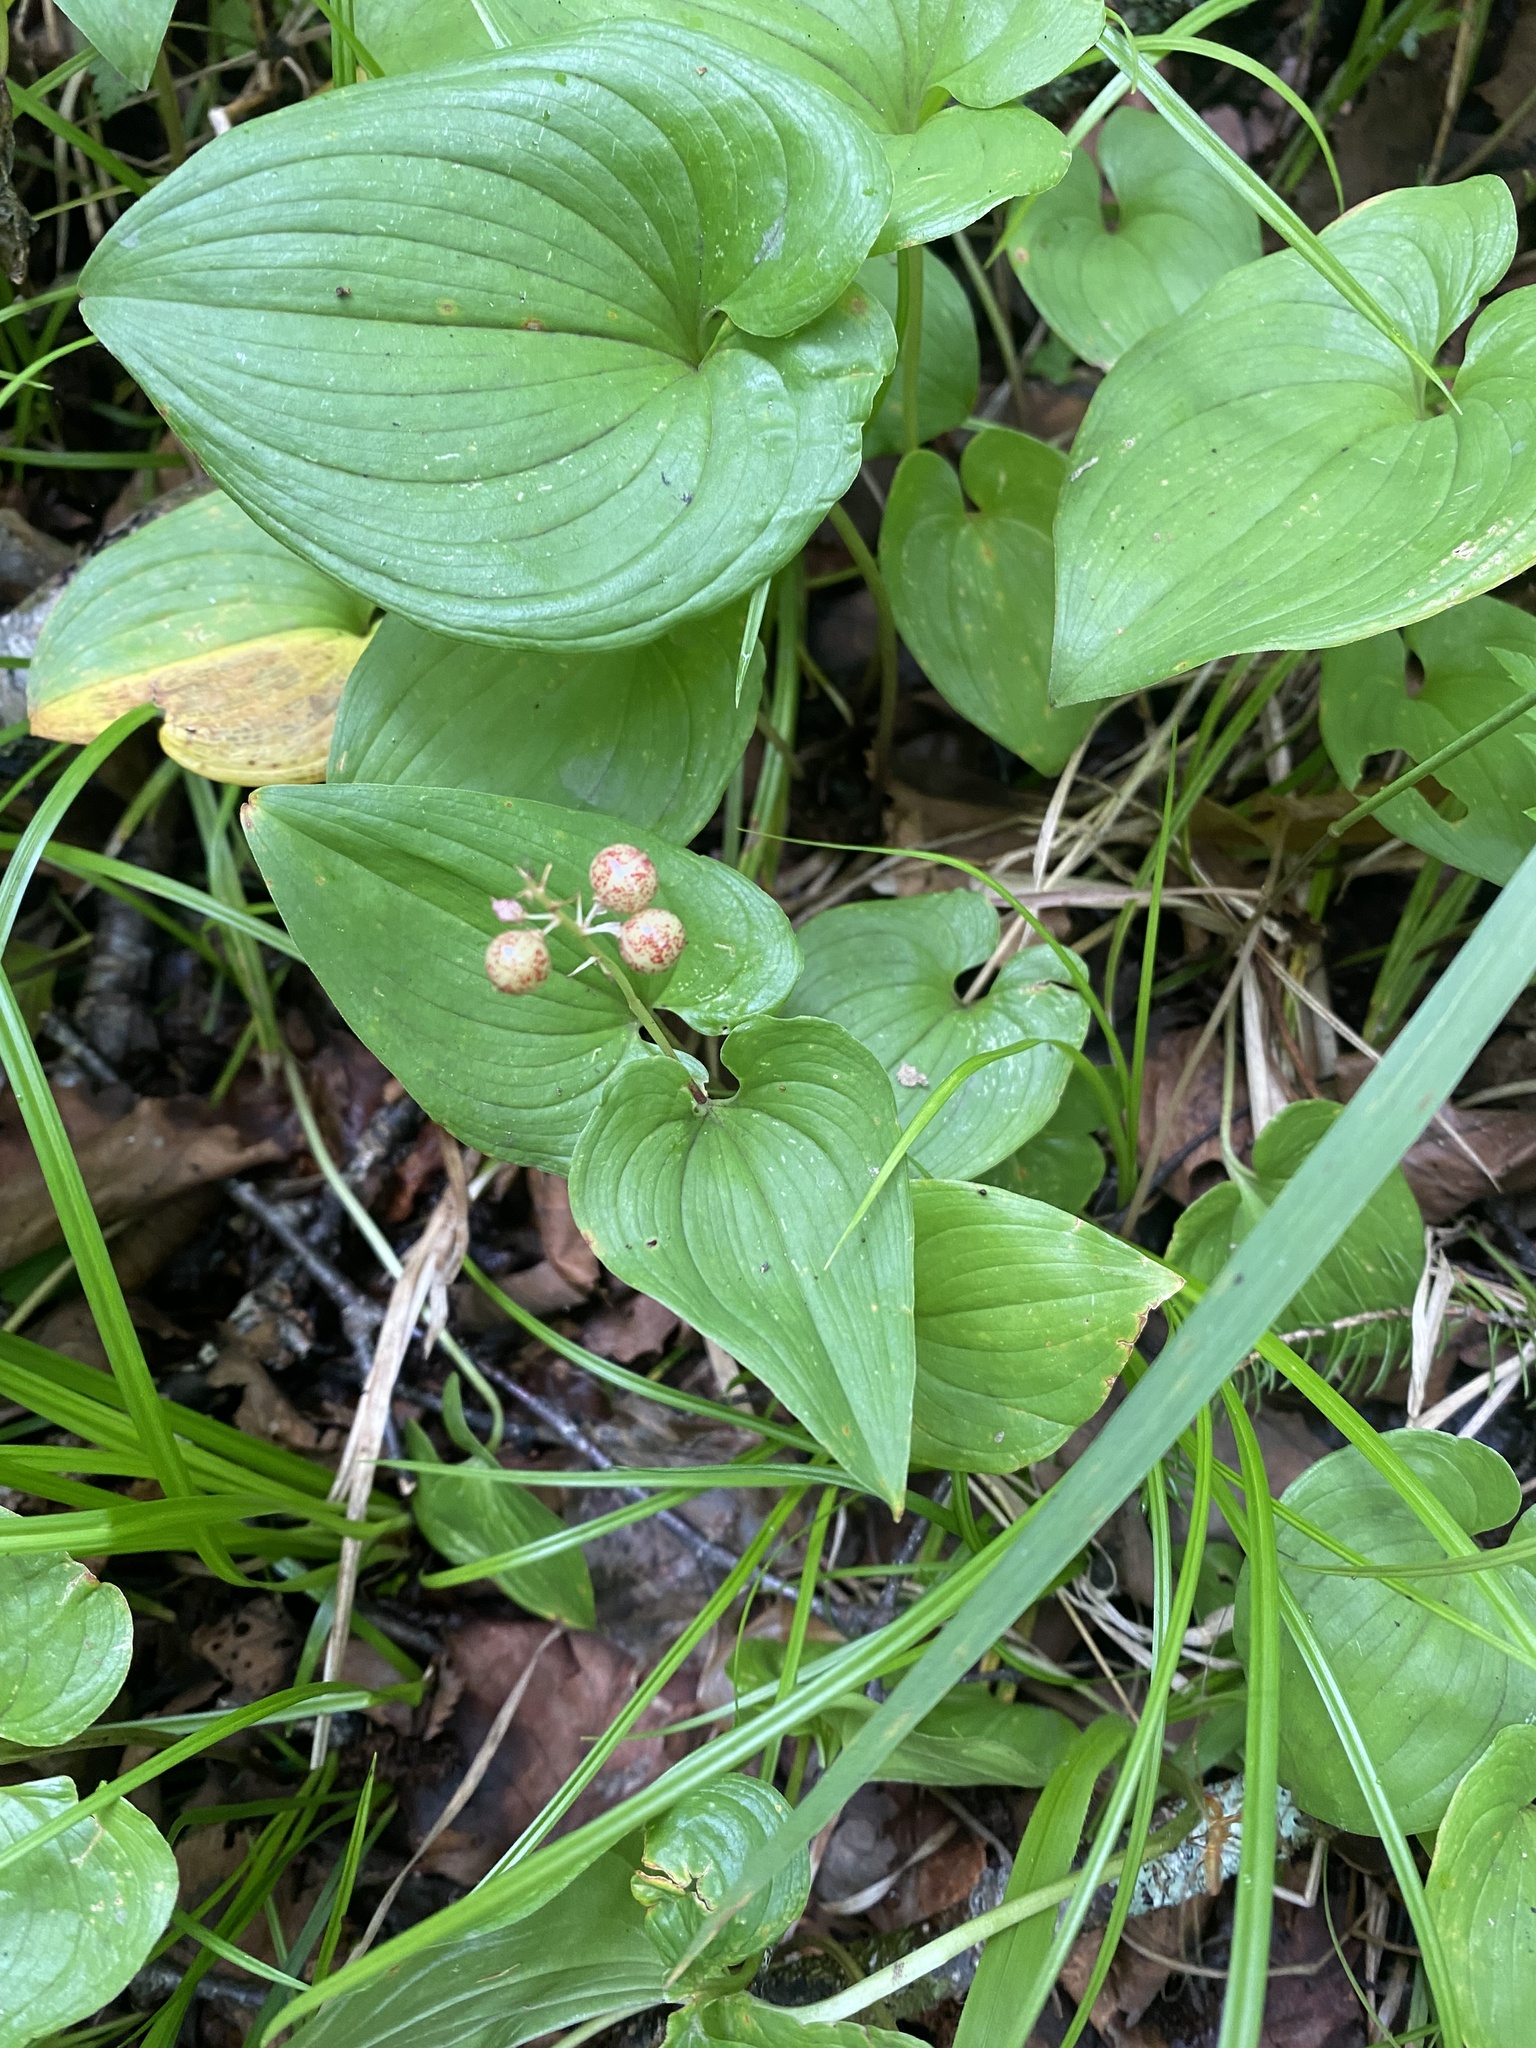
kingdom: Plantae
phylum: Tracheophyta
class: Liliopsida
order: Asparagales
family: Asparagaceae
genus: Maianthemum
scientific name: Maianthemum dilatatum
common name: False lily-of-the-valley
